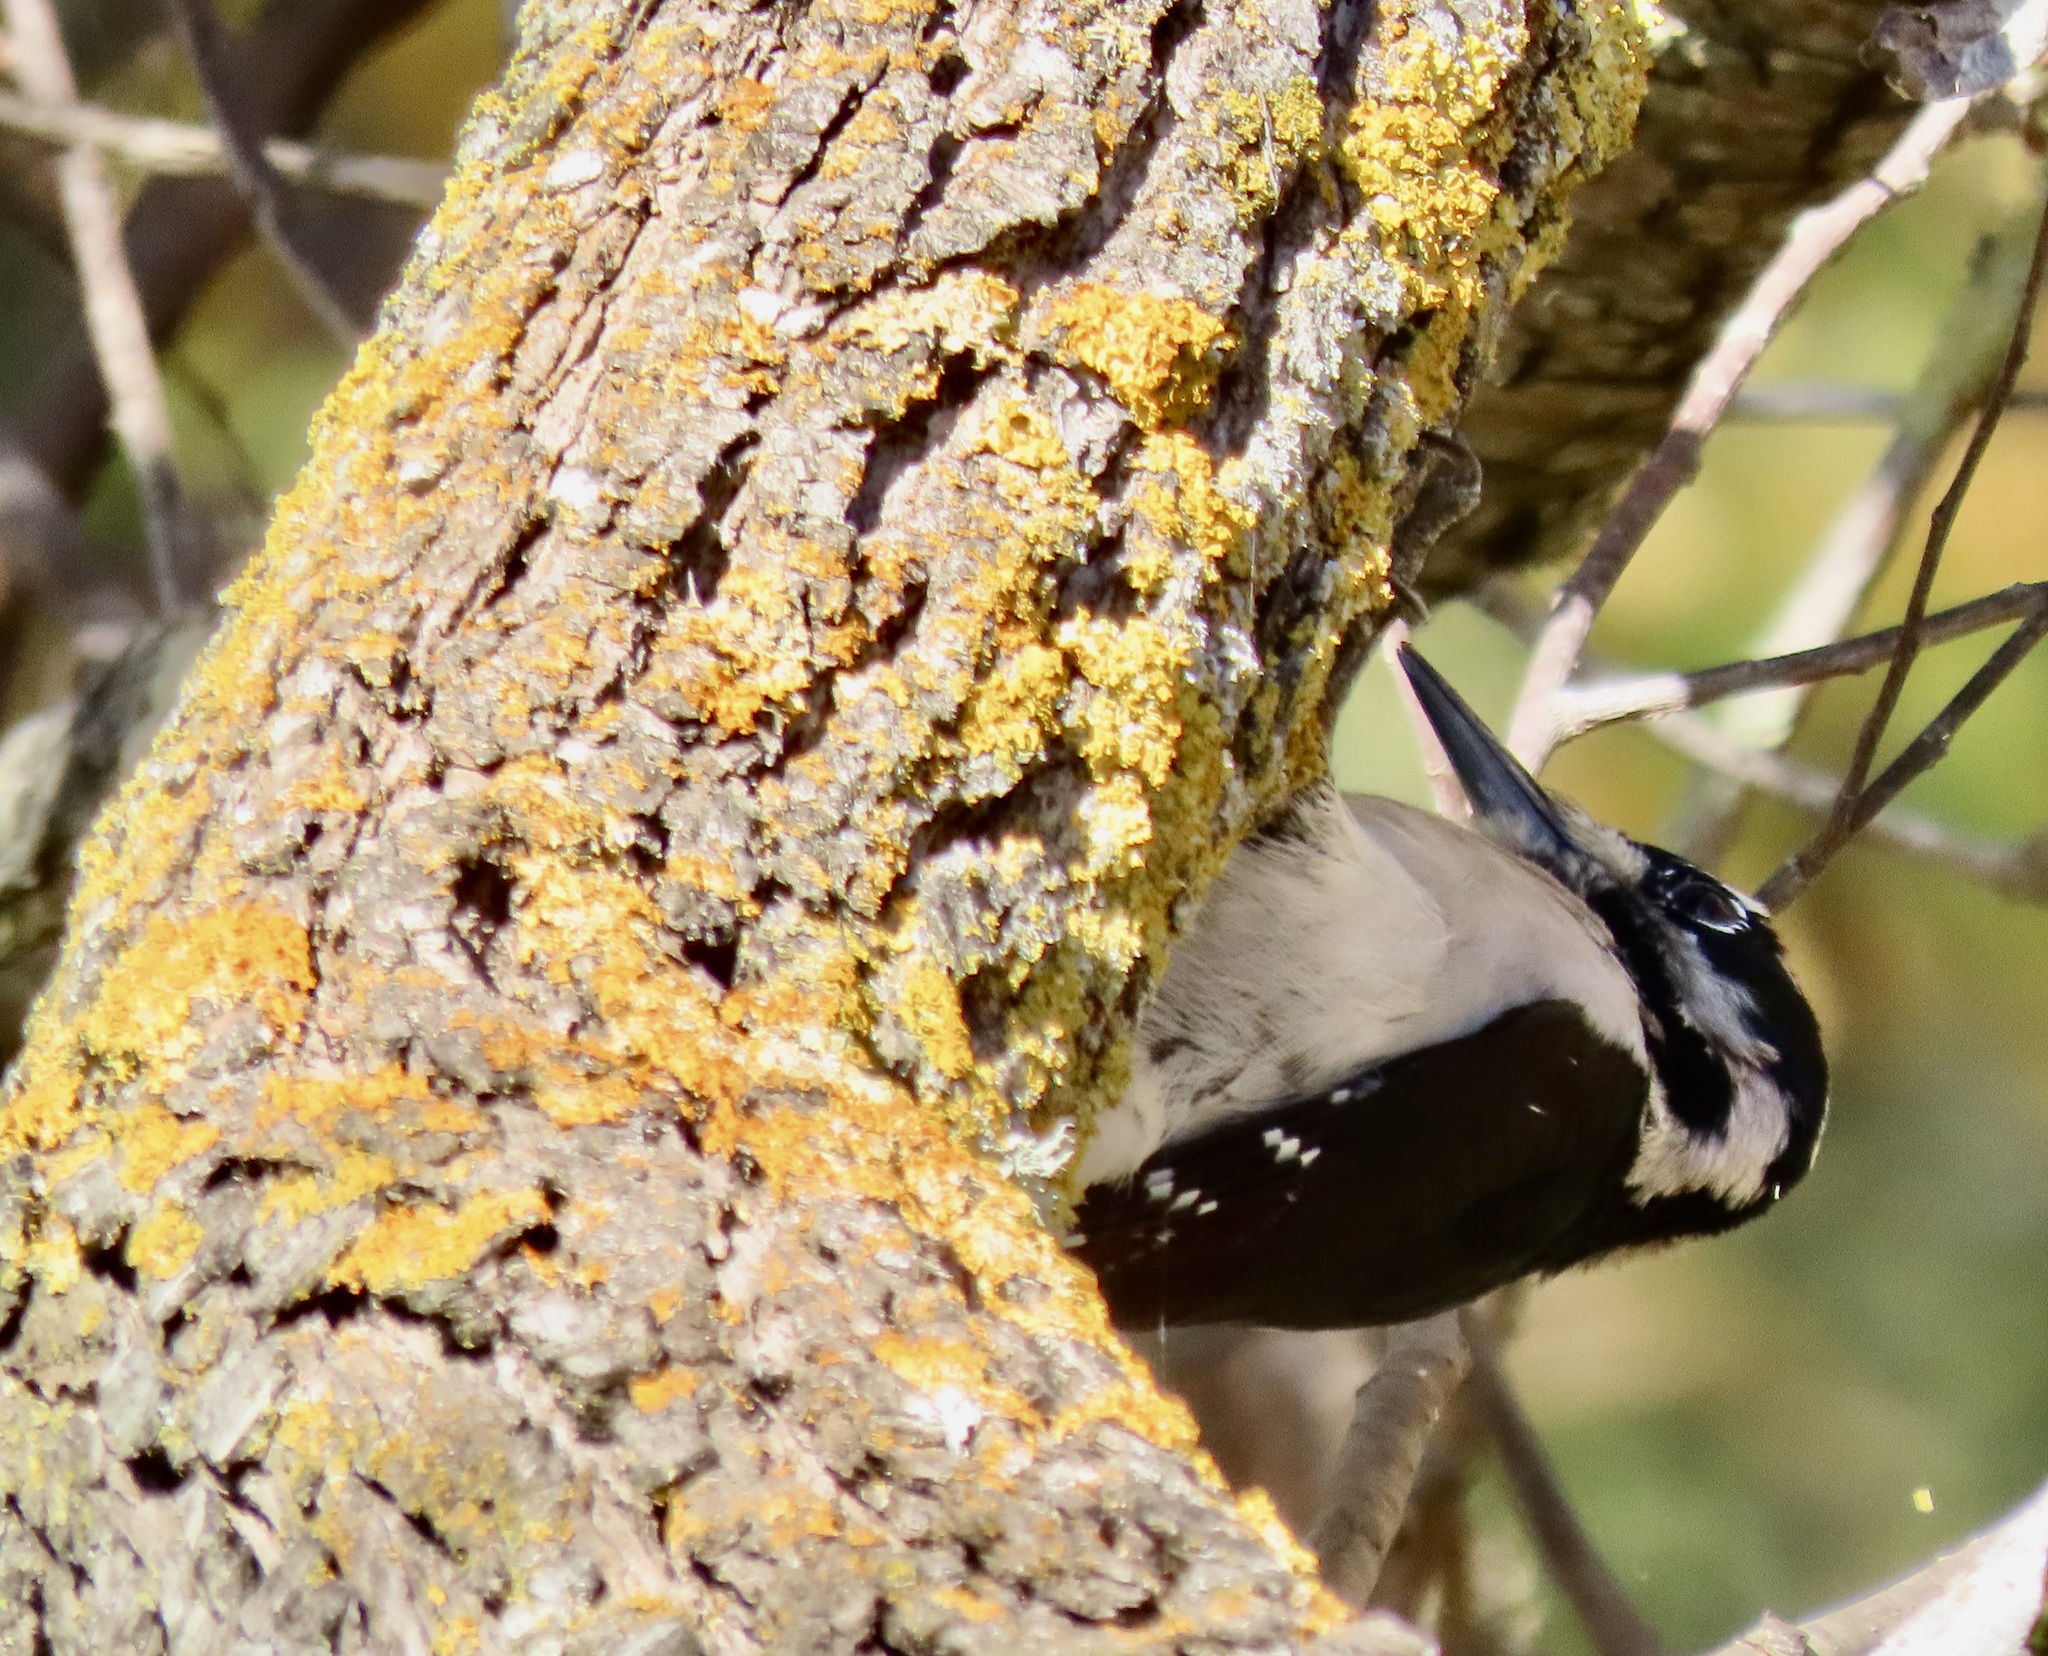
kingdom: Animalia
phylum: Chordata
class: Aves
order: Piciformes
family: Picidae
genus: Leuconotopicus
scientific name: Leuconotopicus villosus
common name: Hairy woodpecker
